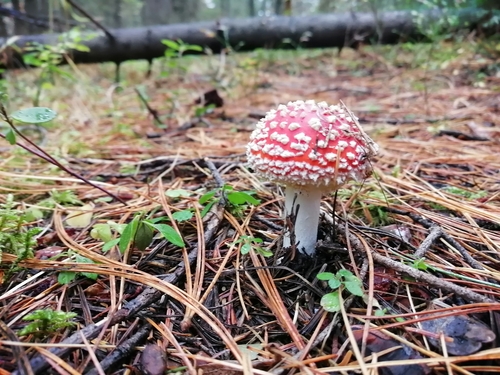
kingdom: Fungi
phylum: Basidiomycota
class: Agaricomycetes
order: Agaricales
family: Amanitaceae
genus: Amanita
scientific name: Amanita muscaria
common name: Fly agaric
